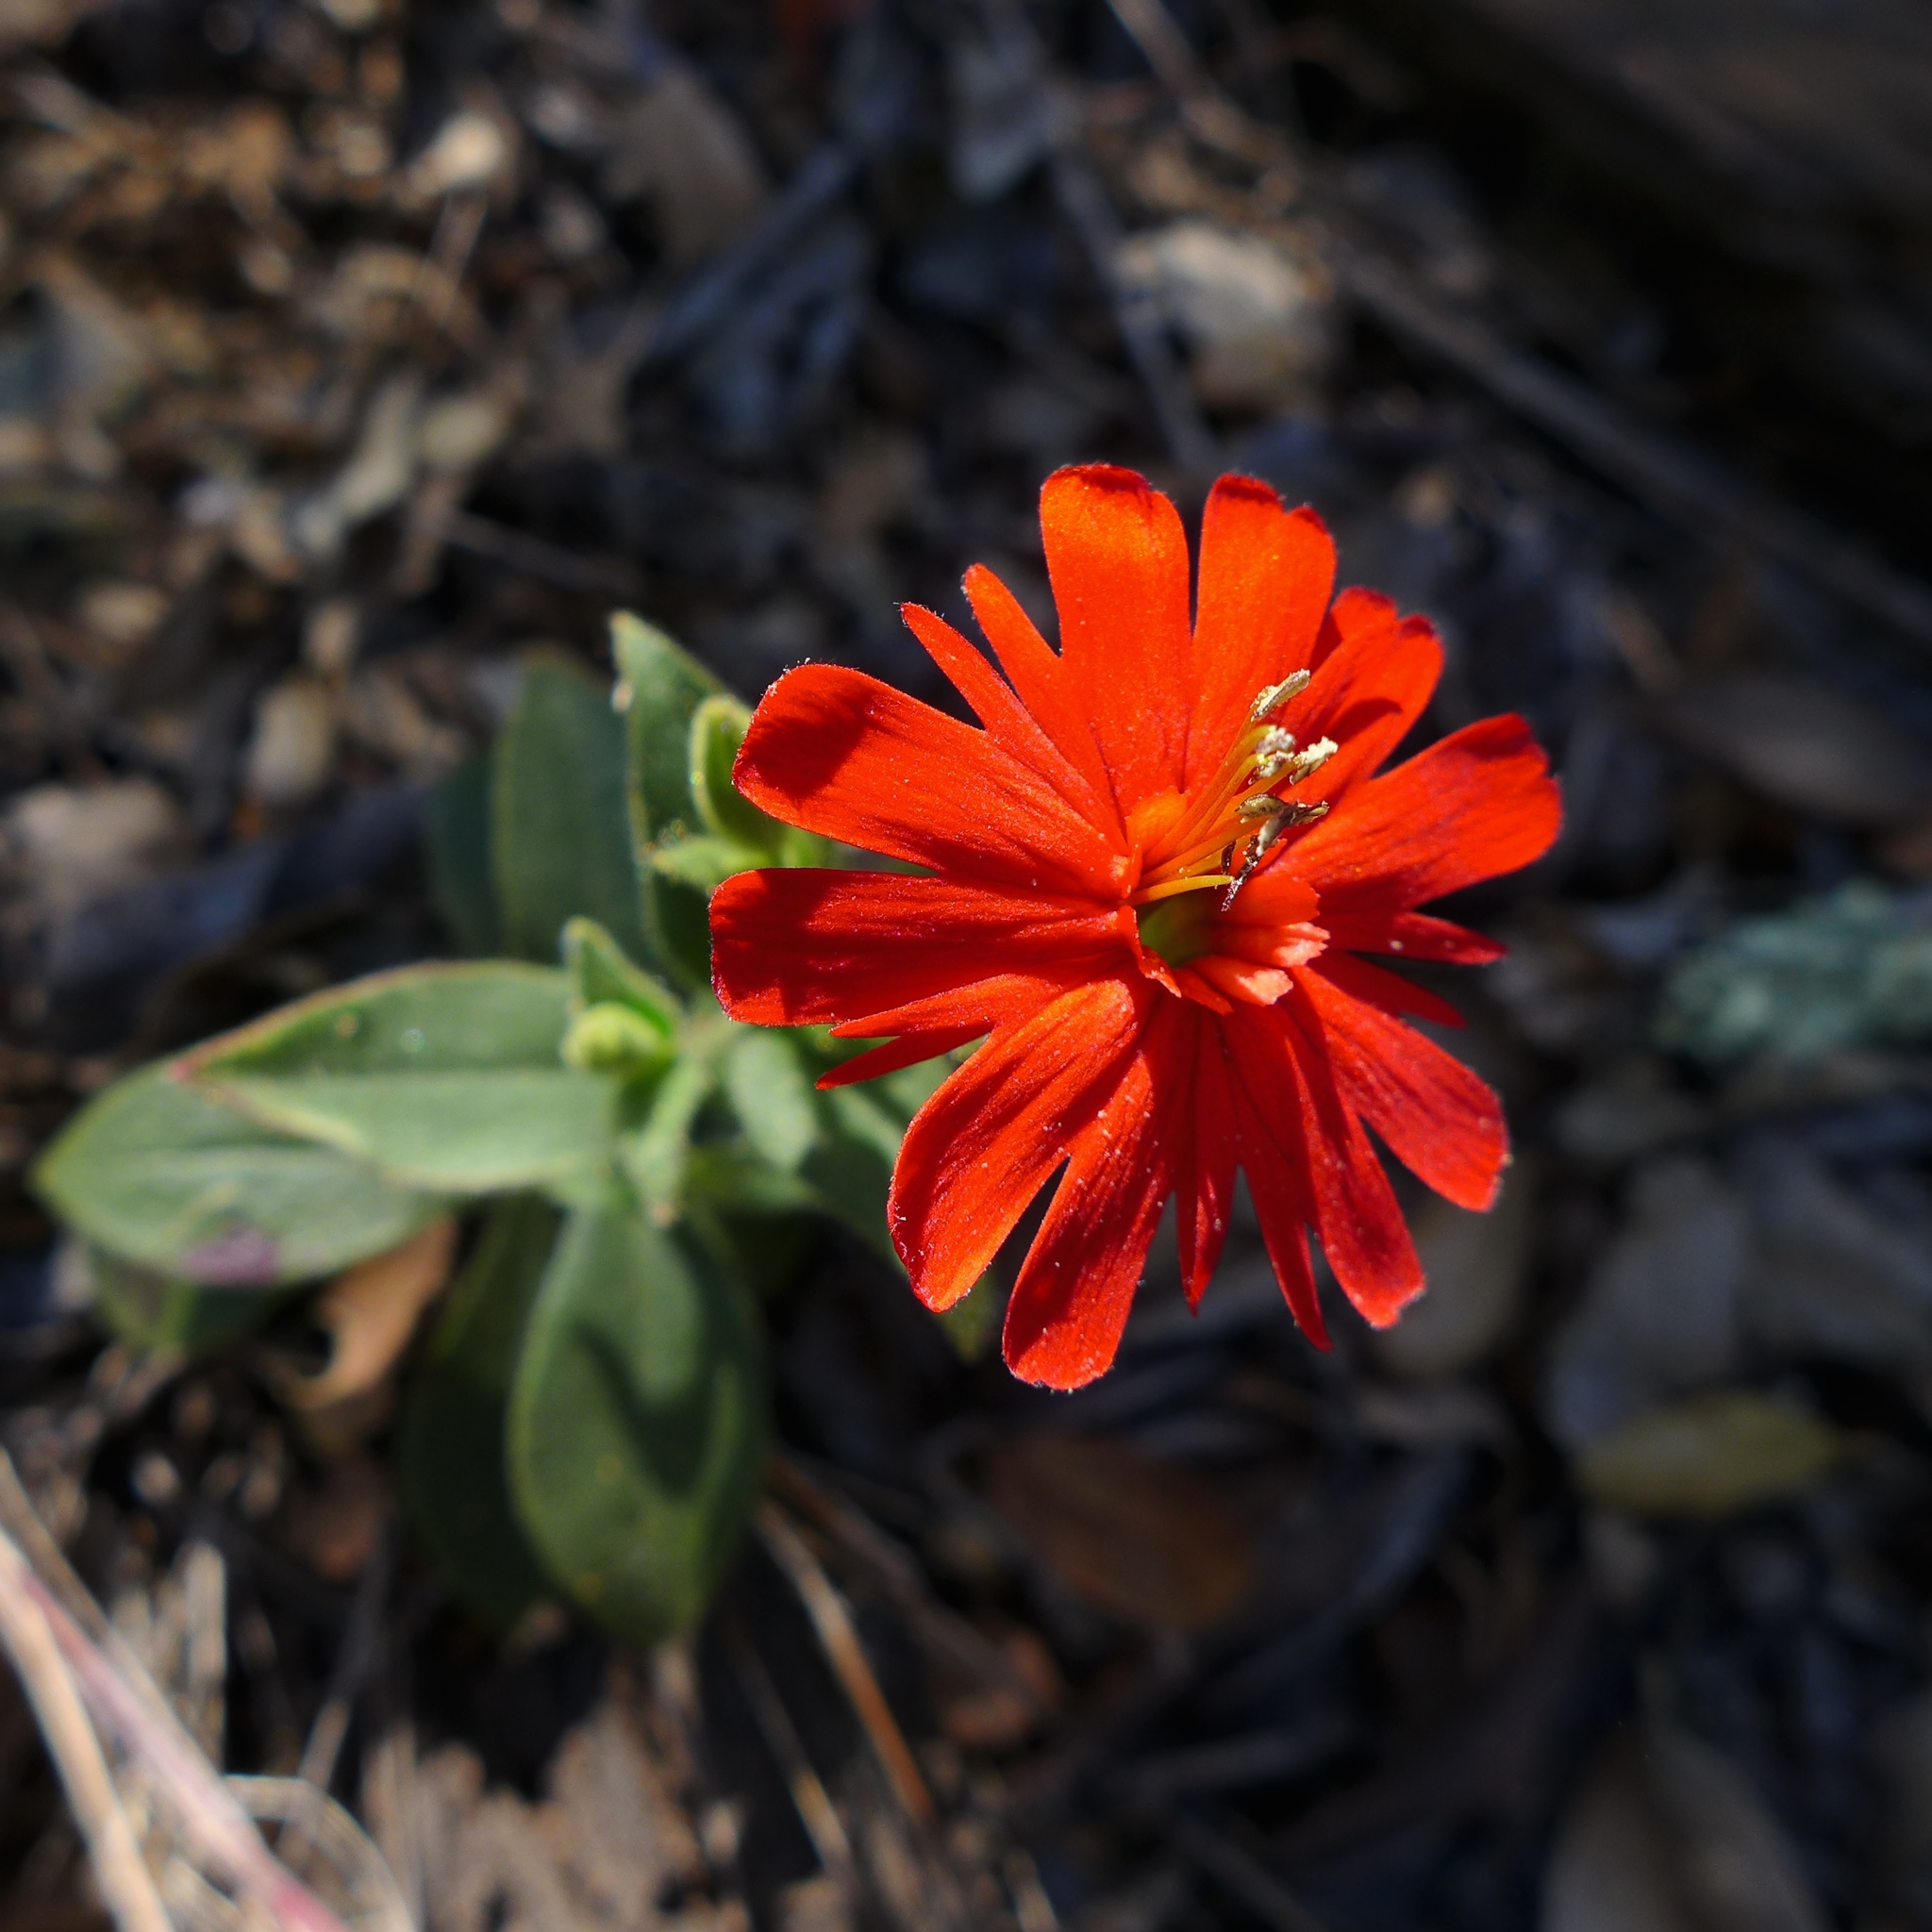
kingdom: Plantae
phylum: Tracheophyta
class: Magnoliopsida
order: Caryophyllales
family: Caryophyllaceae
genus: Silene
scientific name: Silene laciniata
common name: Indian-pink
